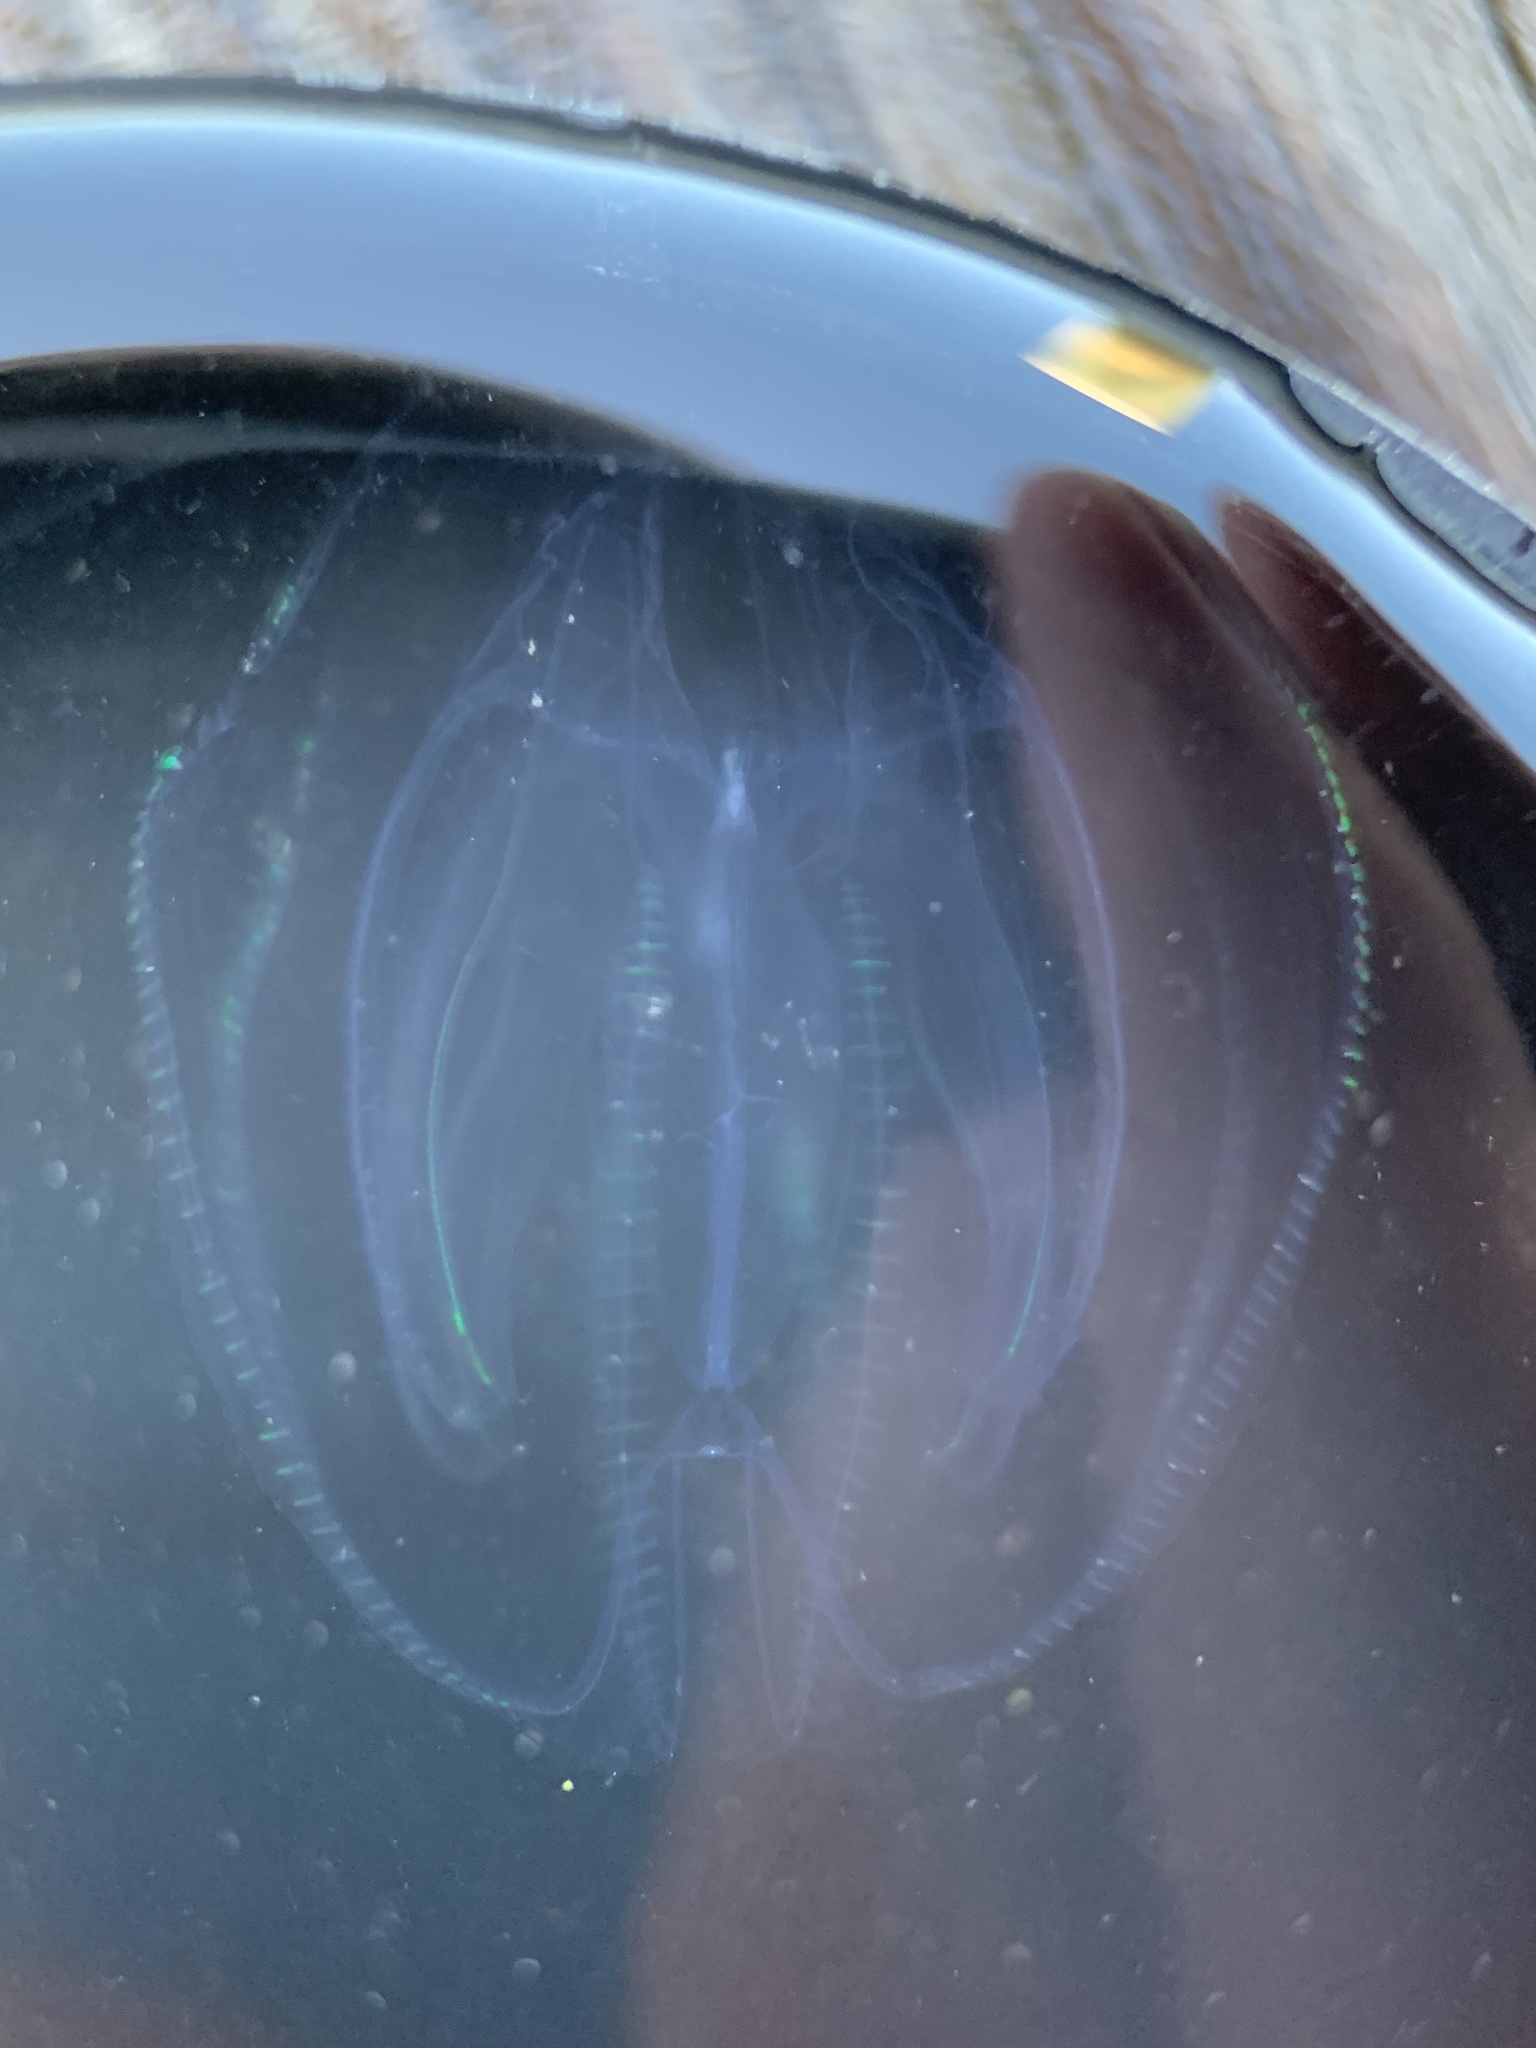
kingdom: Animalia
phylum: Ctenophora
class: Tentaculata
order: Lobata
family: Bolinopsidae
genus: Mnemiopsis
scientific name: Mnemiopsis leidyi
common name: American comb jelly
